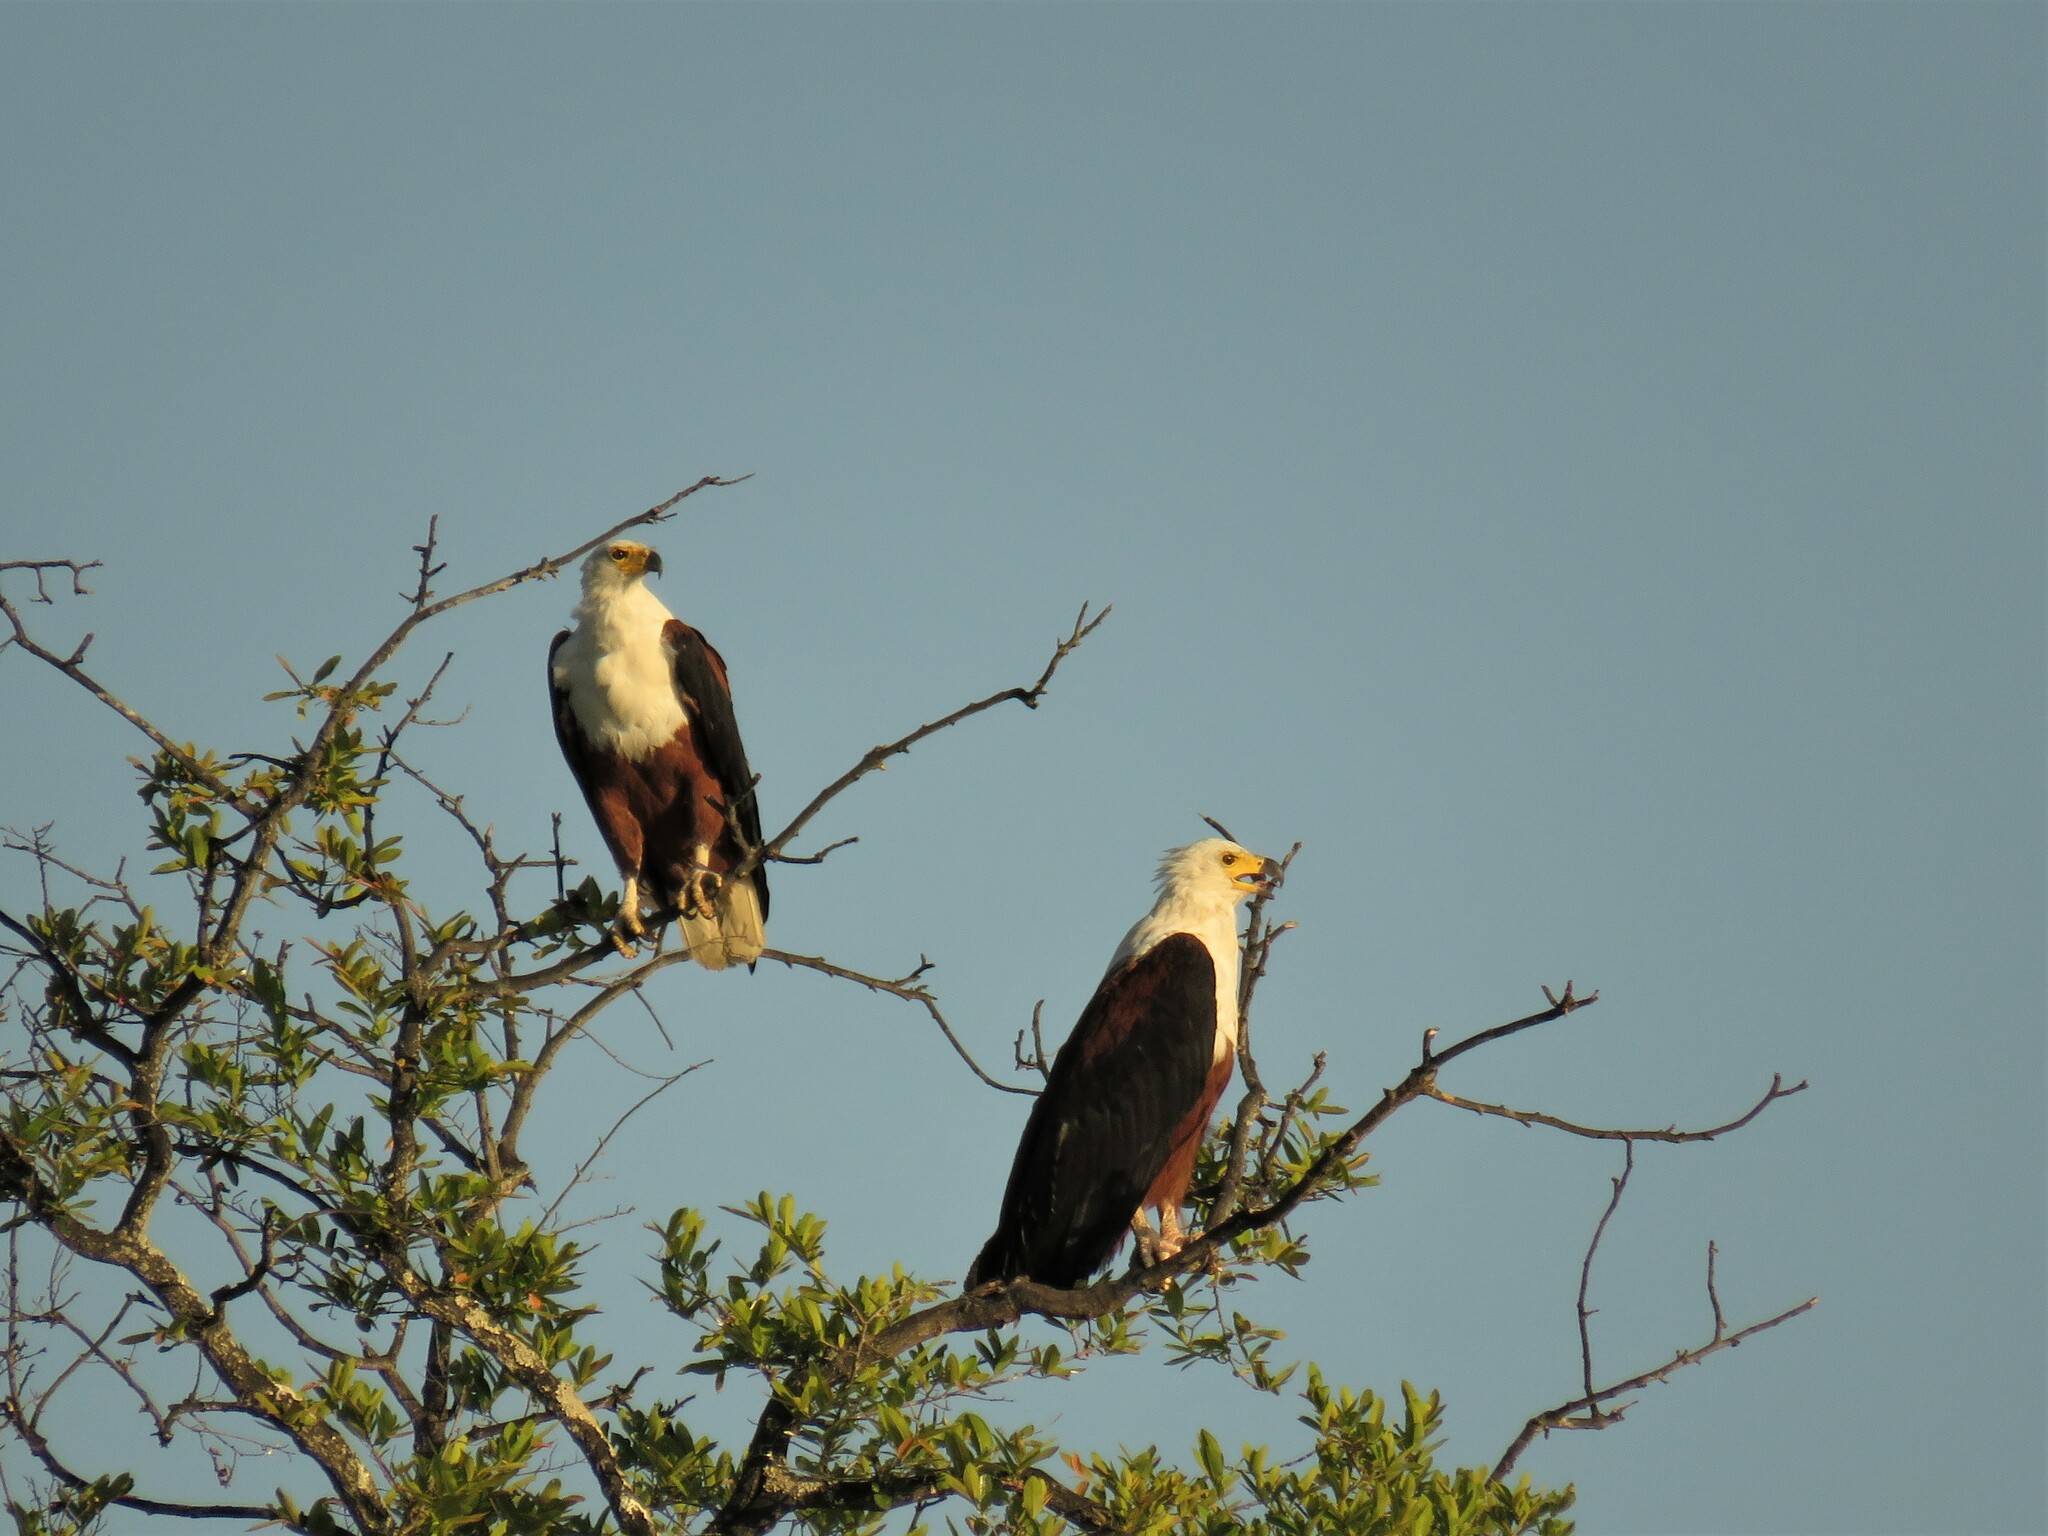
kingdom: Animalia
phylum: Chordata
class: Aves
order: Accipitriformes
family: Accipitridae
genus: Haliaeetus
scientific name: Haliaeetus vocifer
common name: African fish eagle
